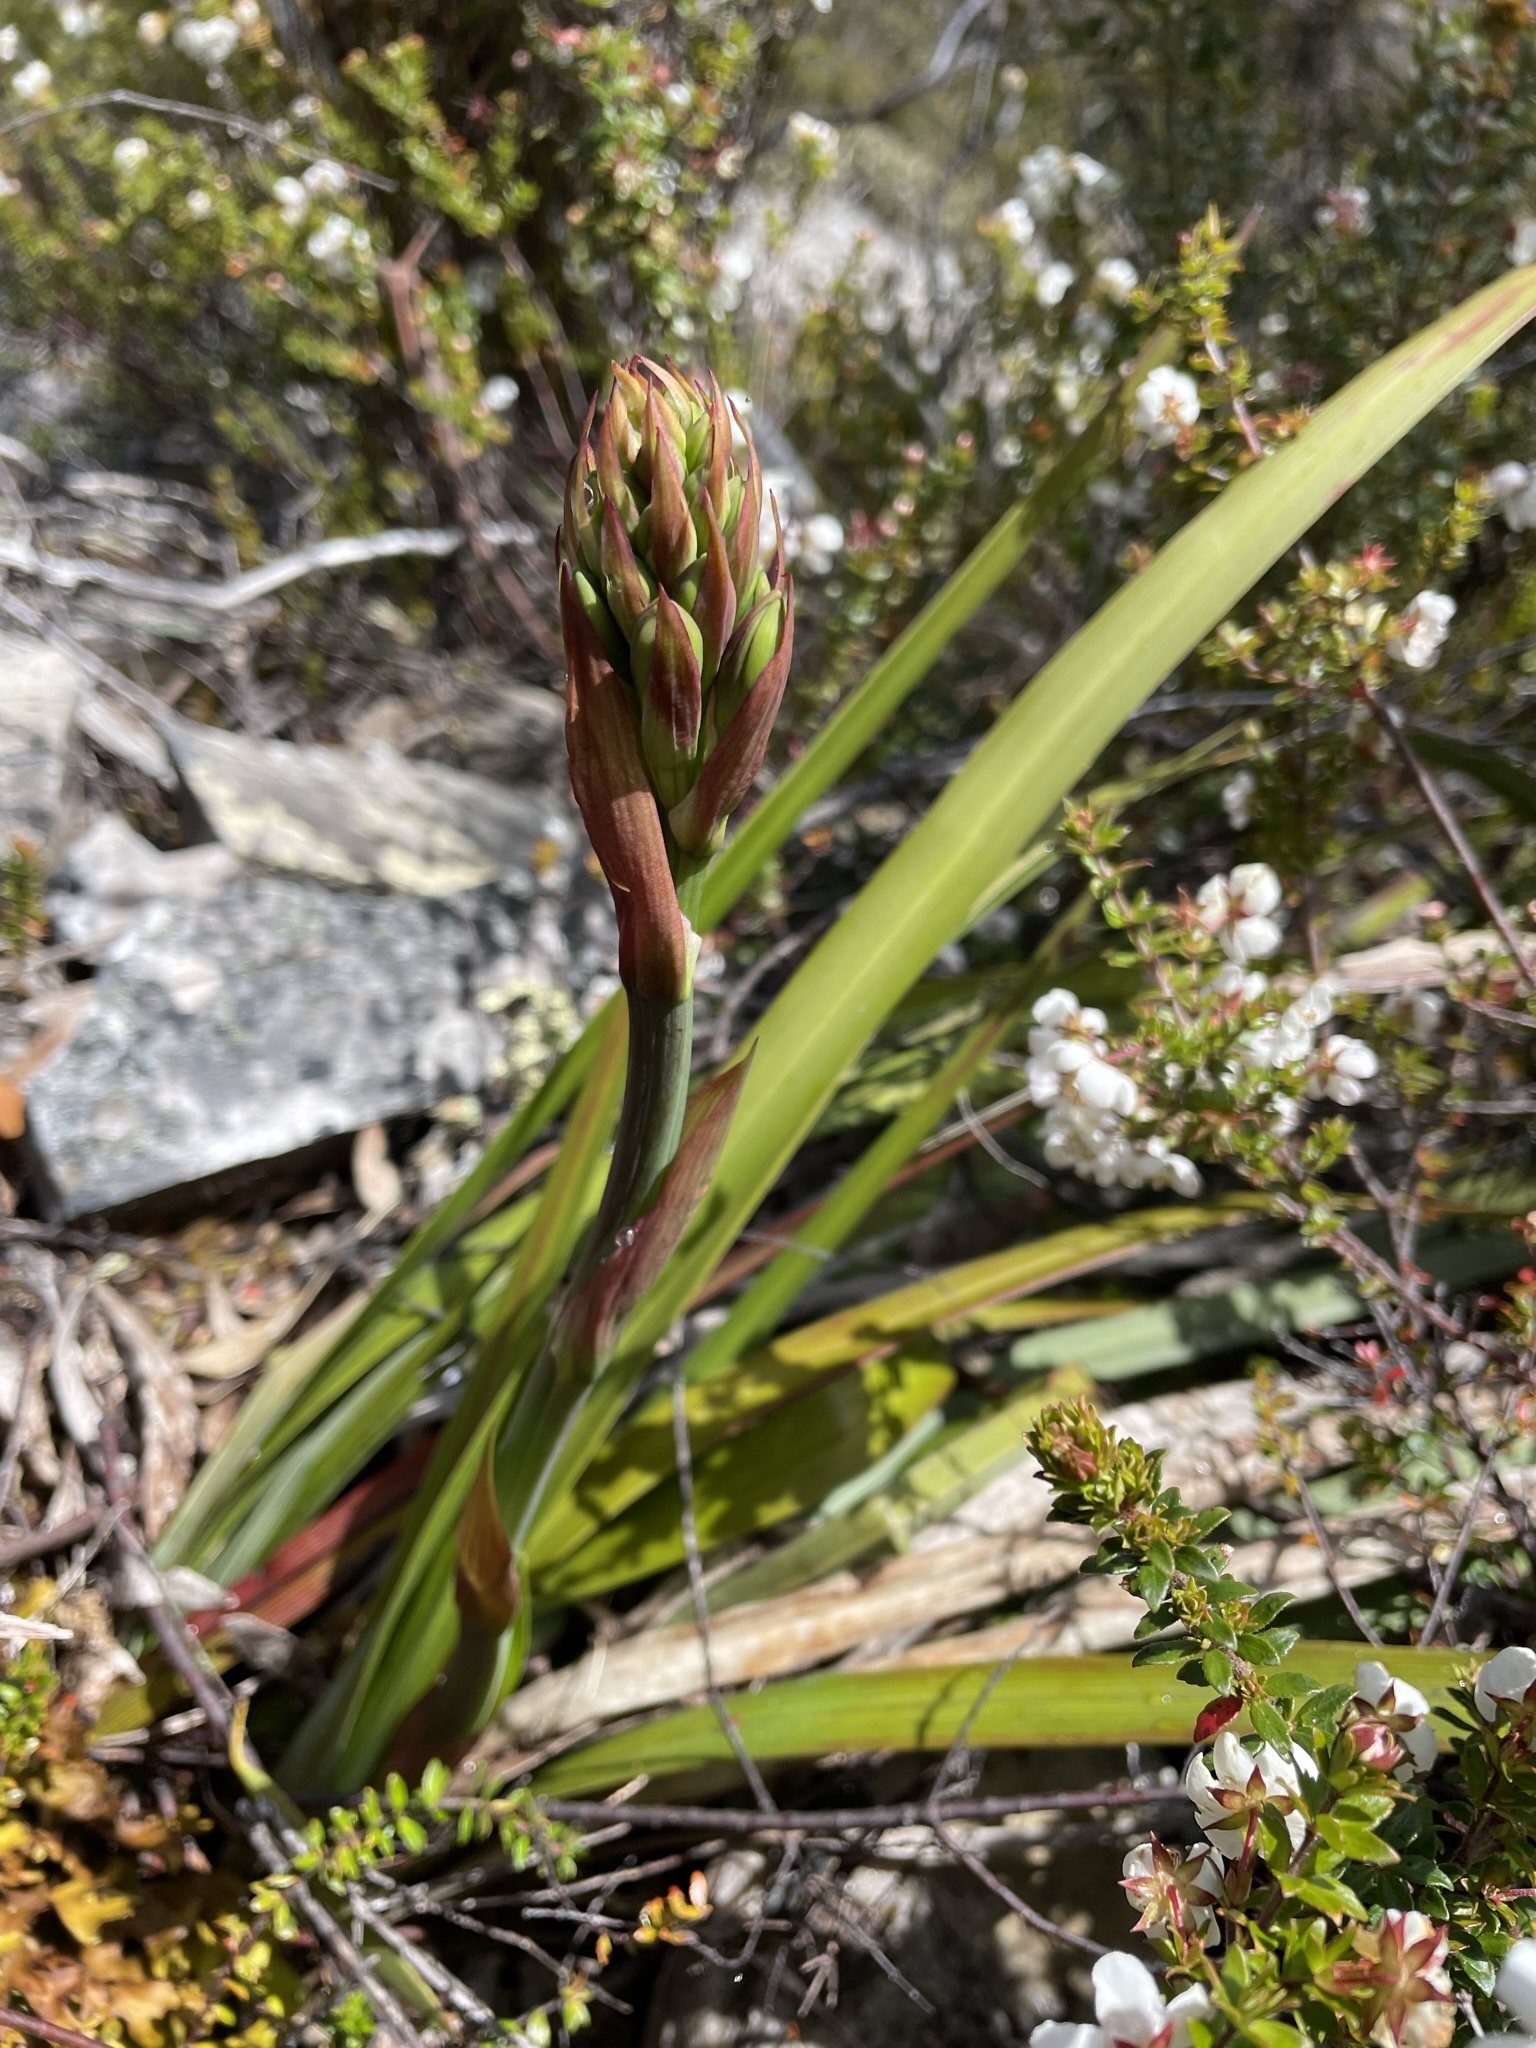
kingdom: Plantae
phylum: Tracheophyta
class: Liliopsida
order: Asparagales
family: Blandfordiaceae
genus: Blandfordia
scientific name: Blandfordia punicea
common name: Tasmanian christmas-bell
